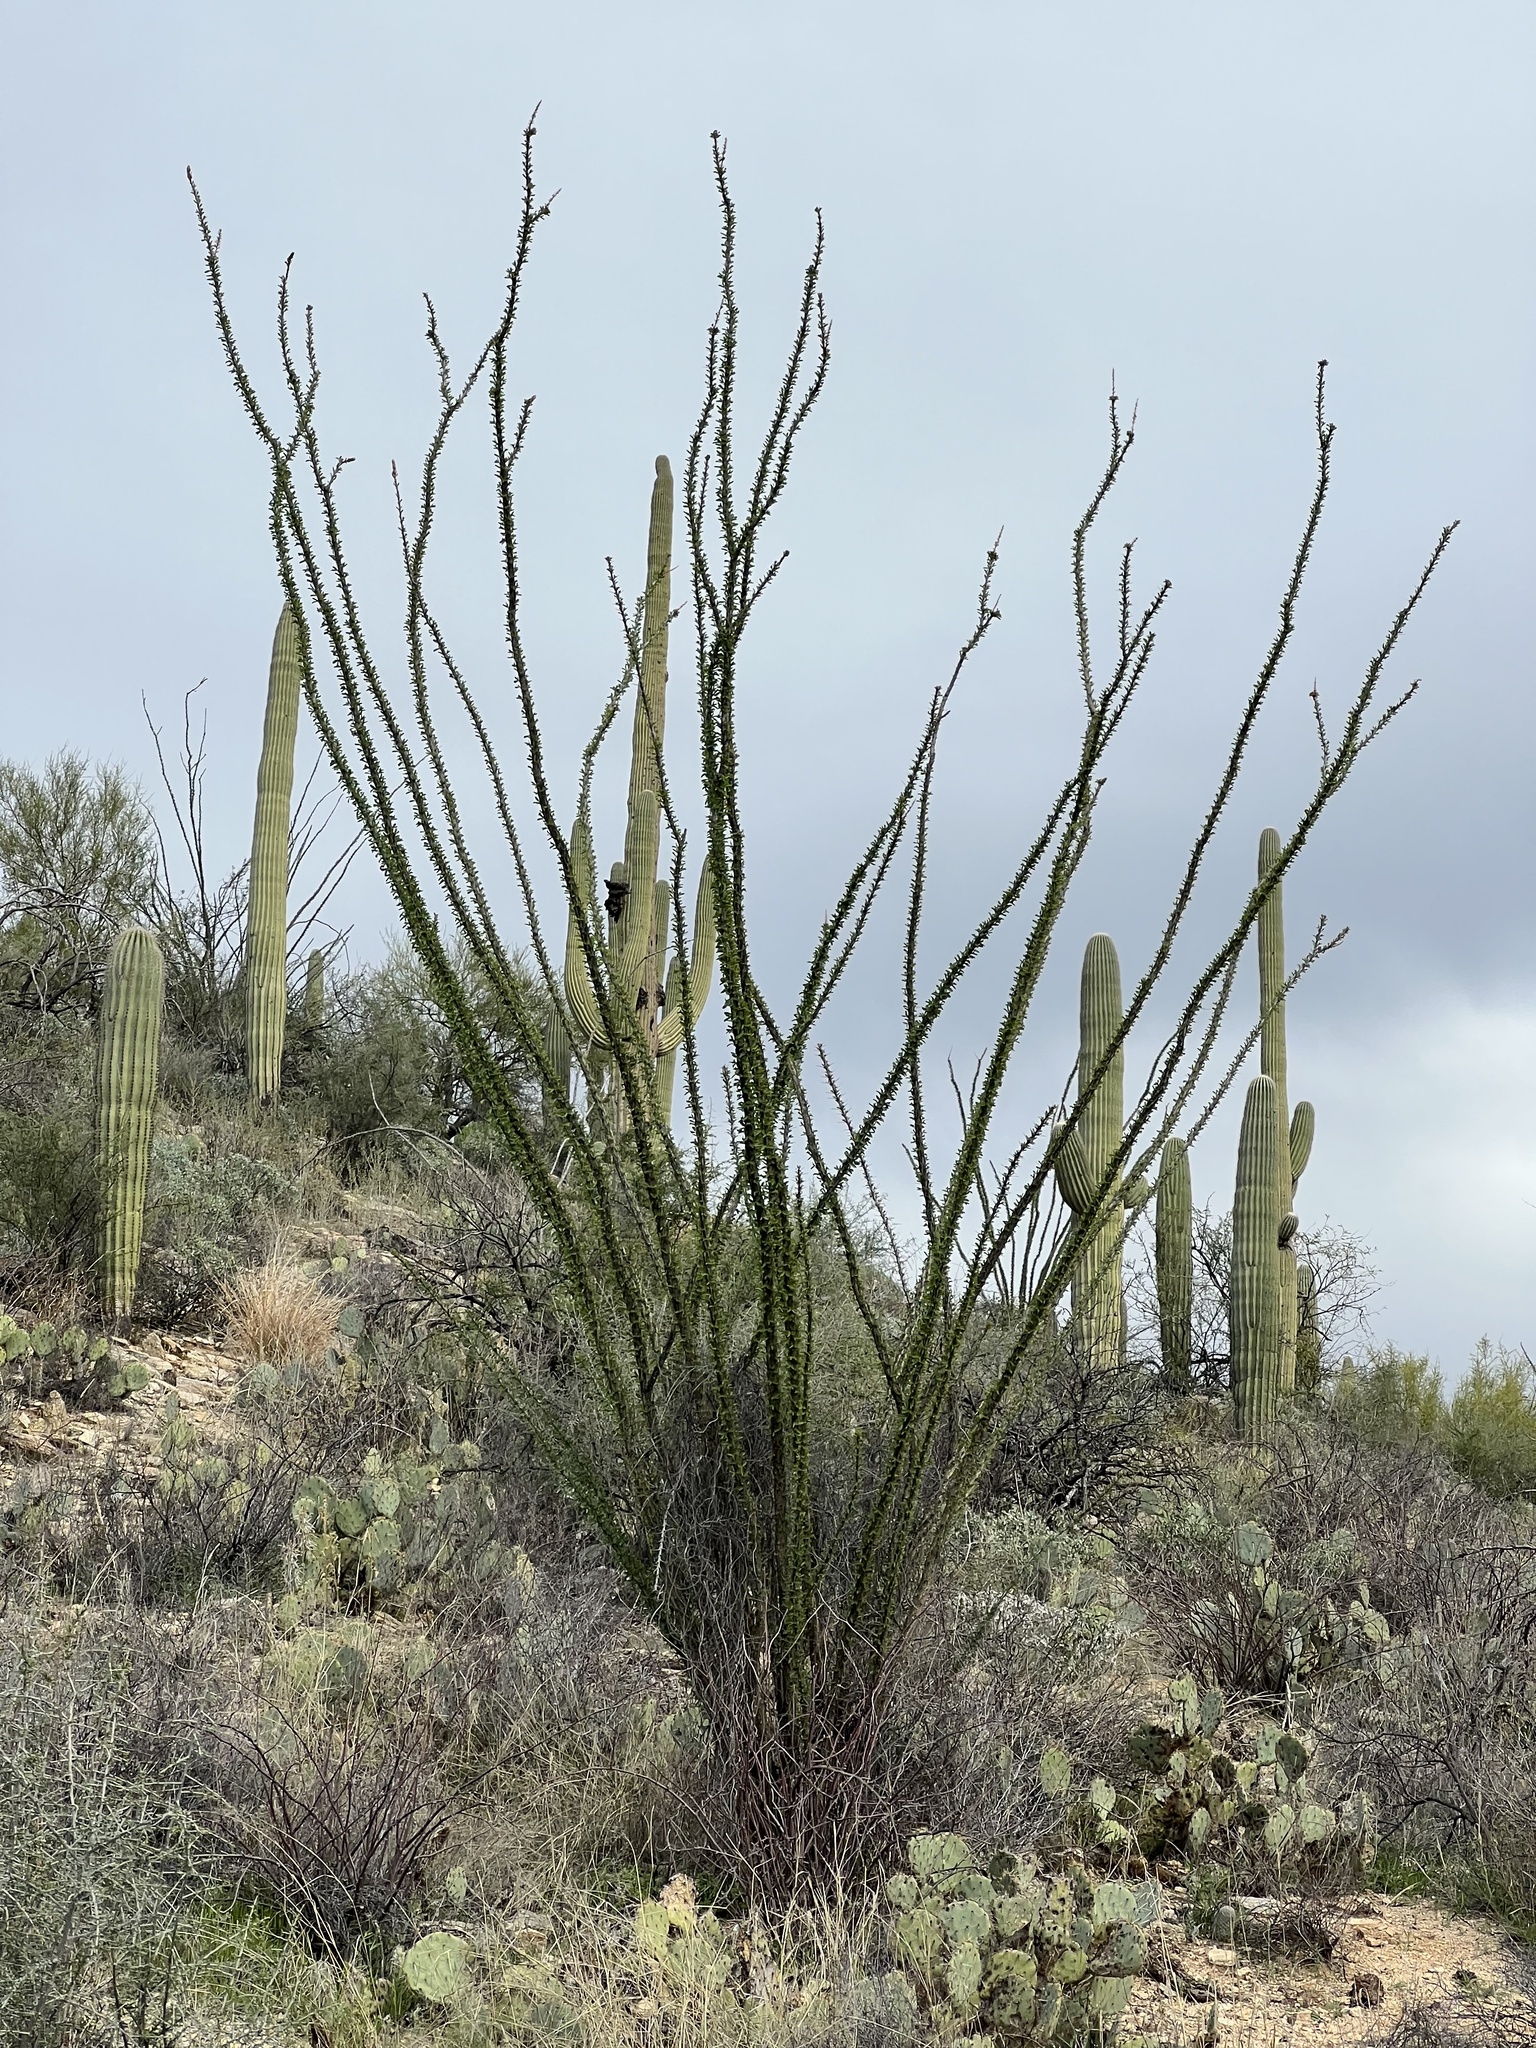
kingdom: Plantae
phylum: Tracheophyta
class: Magnoliopsida
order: Ericales
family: Fouquieriaceae
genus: Fouquieria
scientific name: Fouquieria splendens
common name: Vine-cactus
